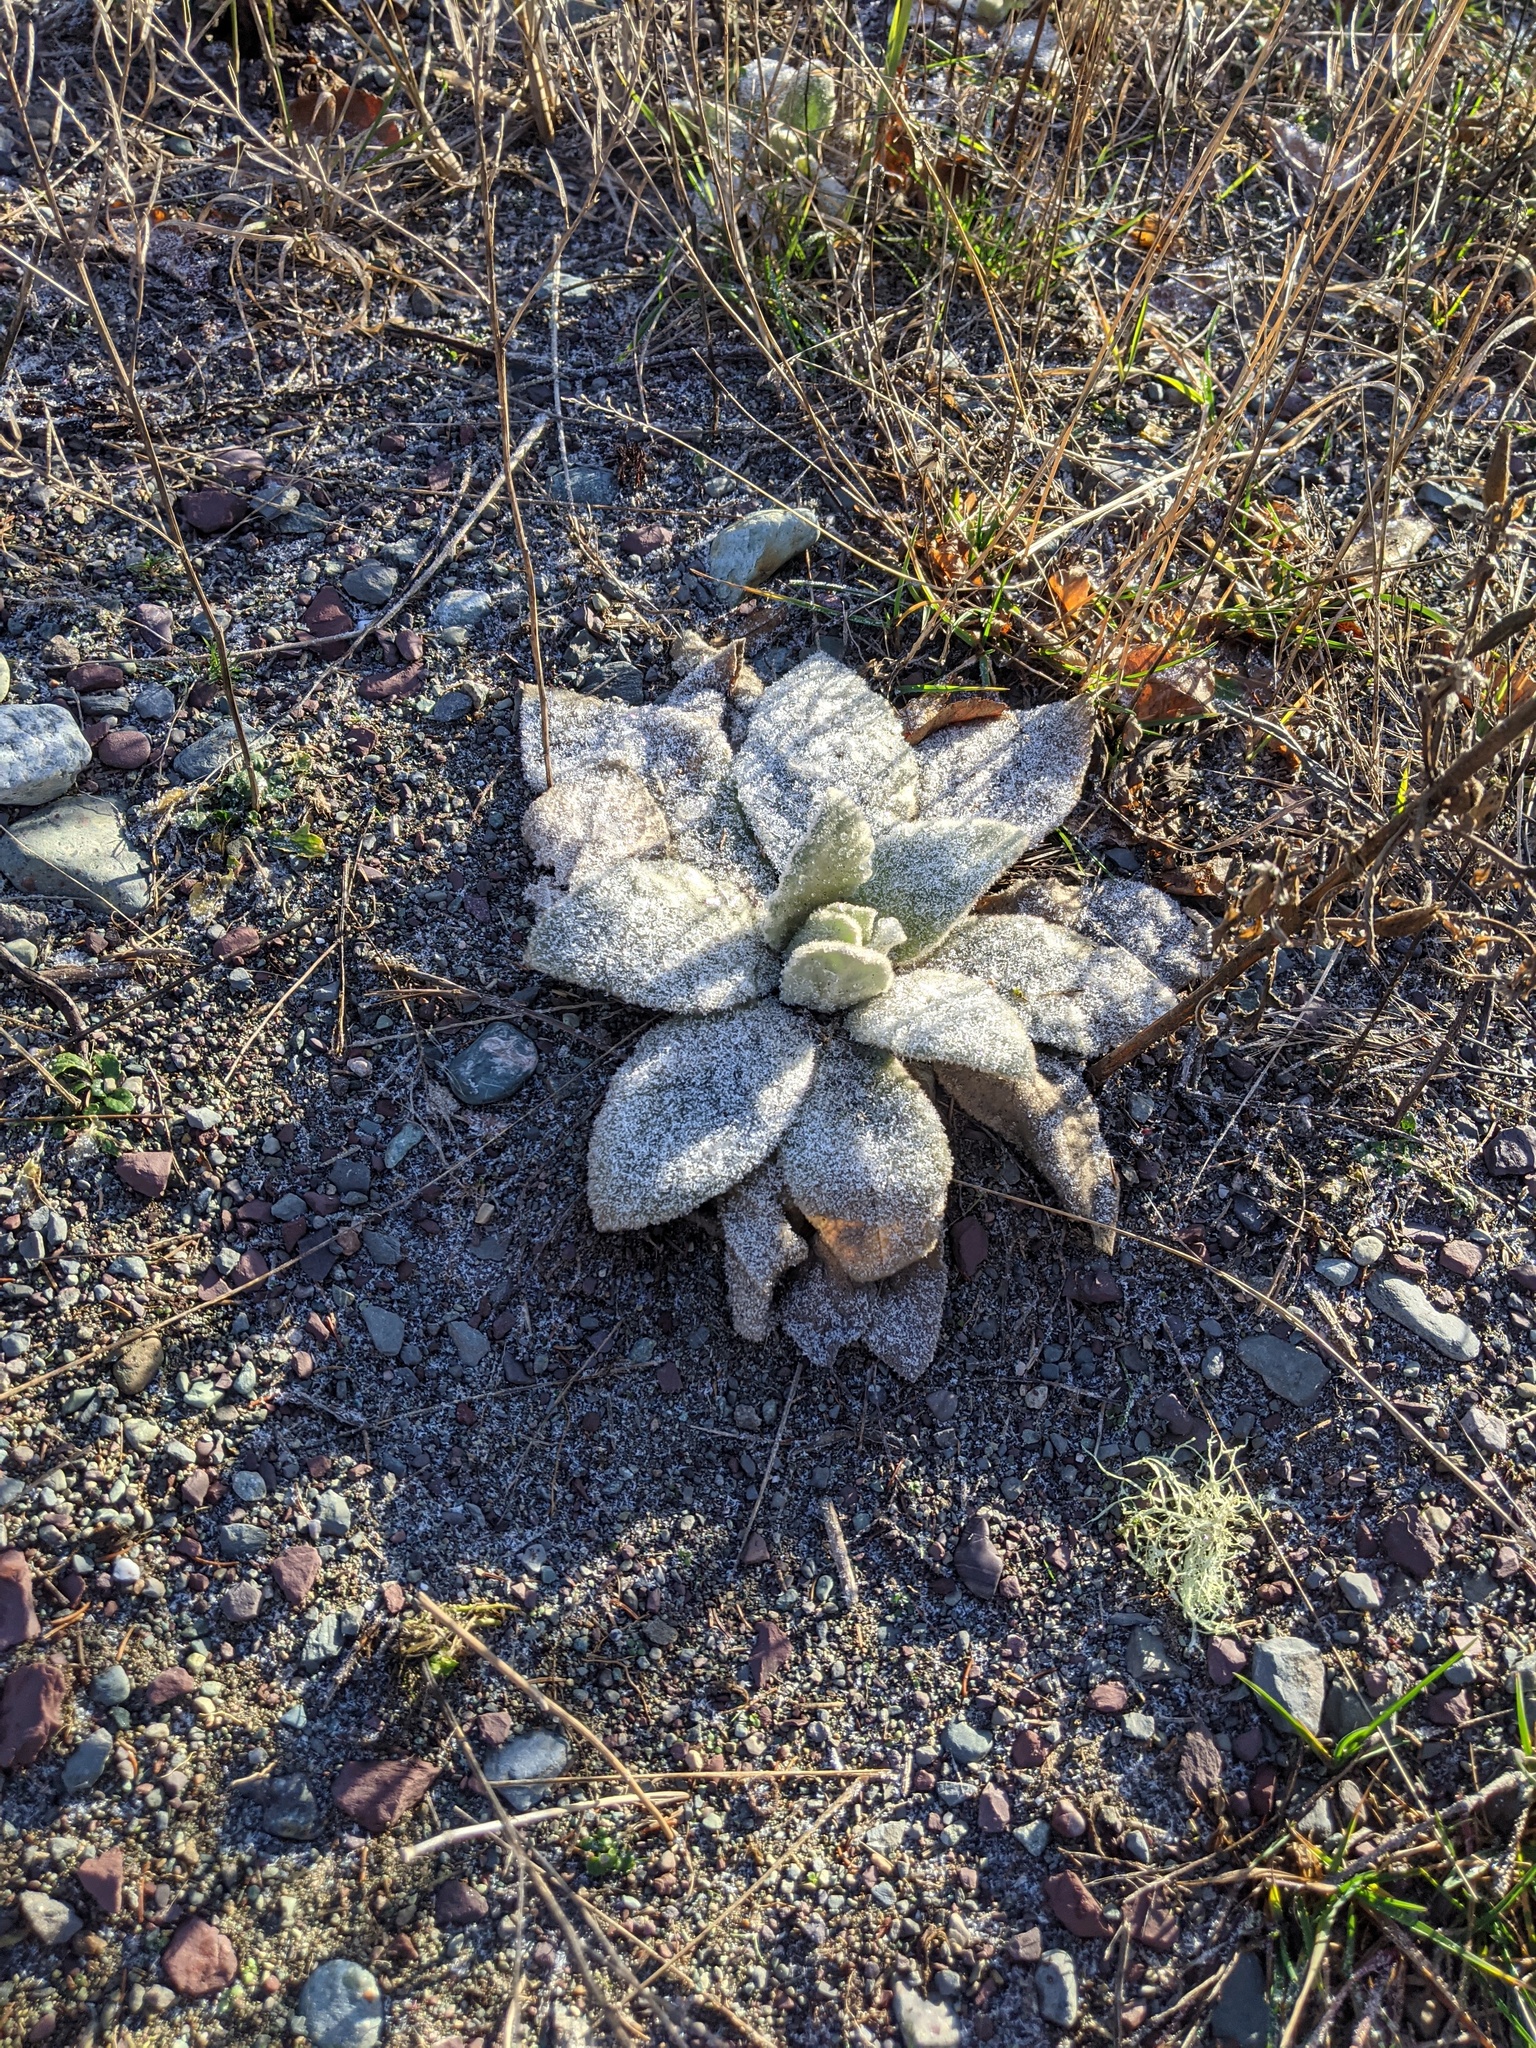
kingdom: Plantae
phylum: Tracheophyta
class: Magnoliopsida
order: Lamiales
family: Scrophulariaceae
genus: Verbascum
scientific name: Verbascum thapsus
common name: Common mullein
